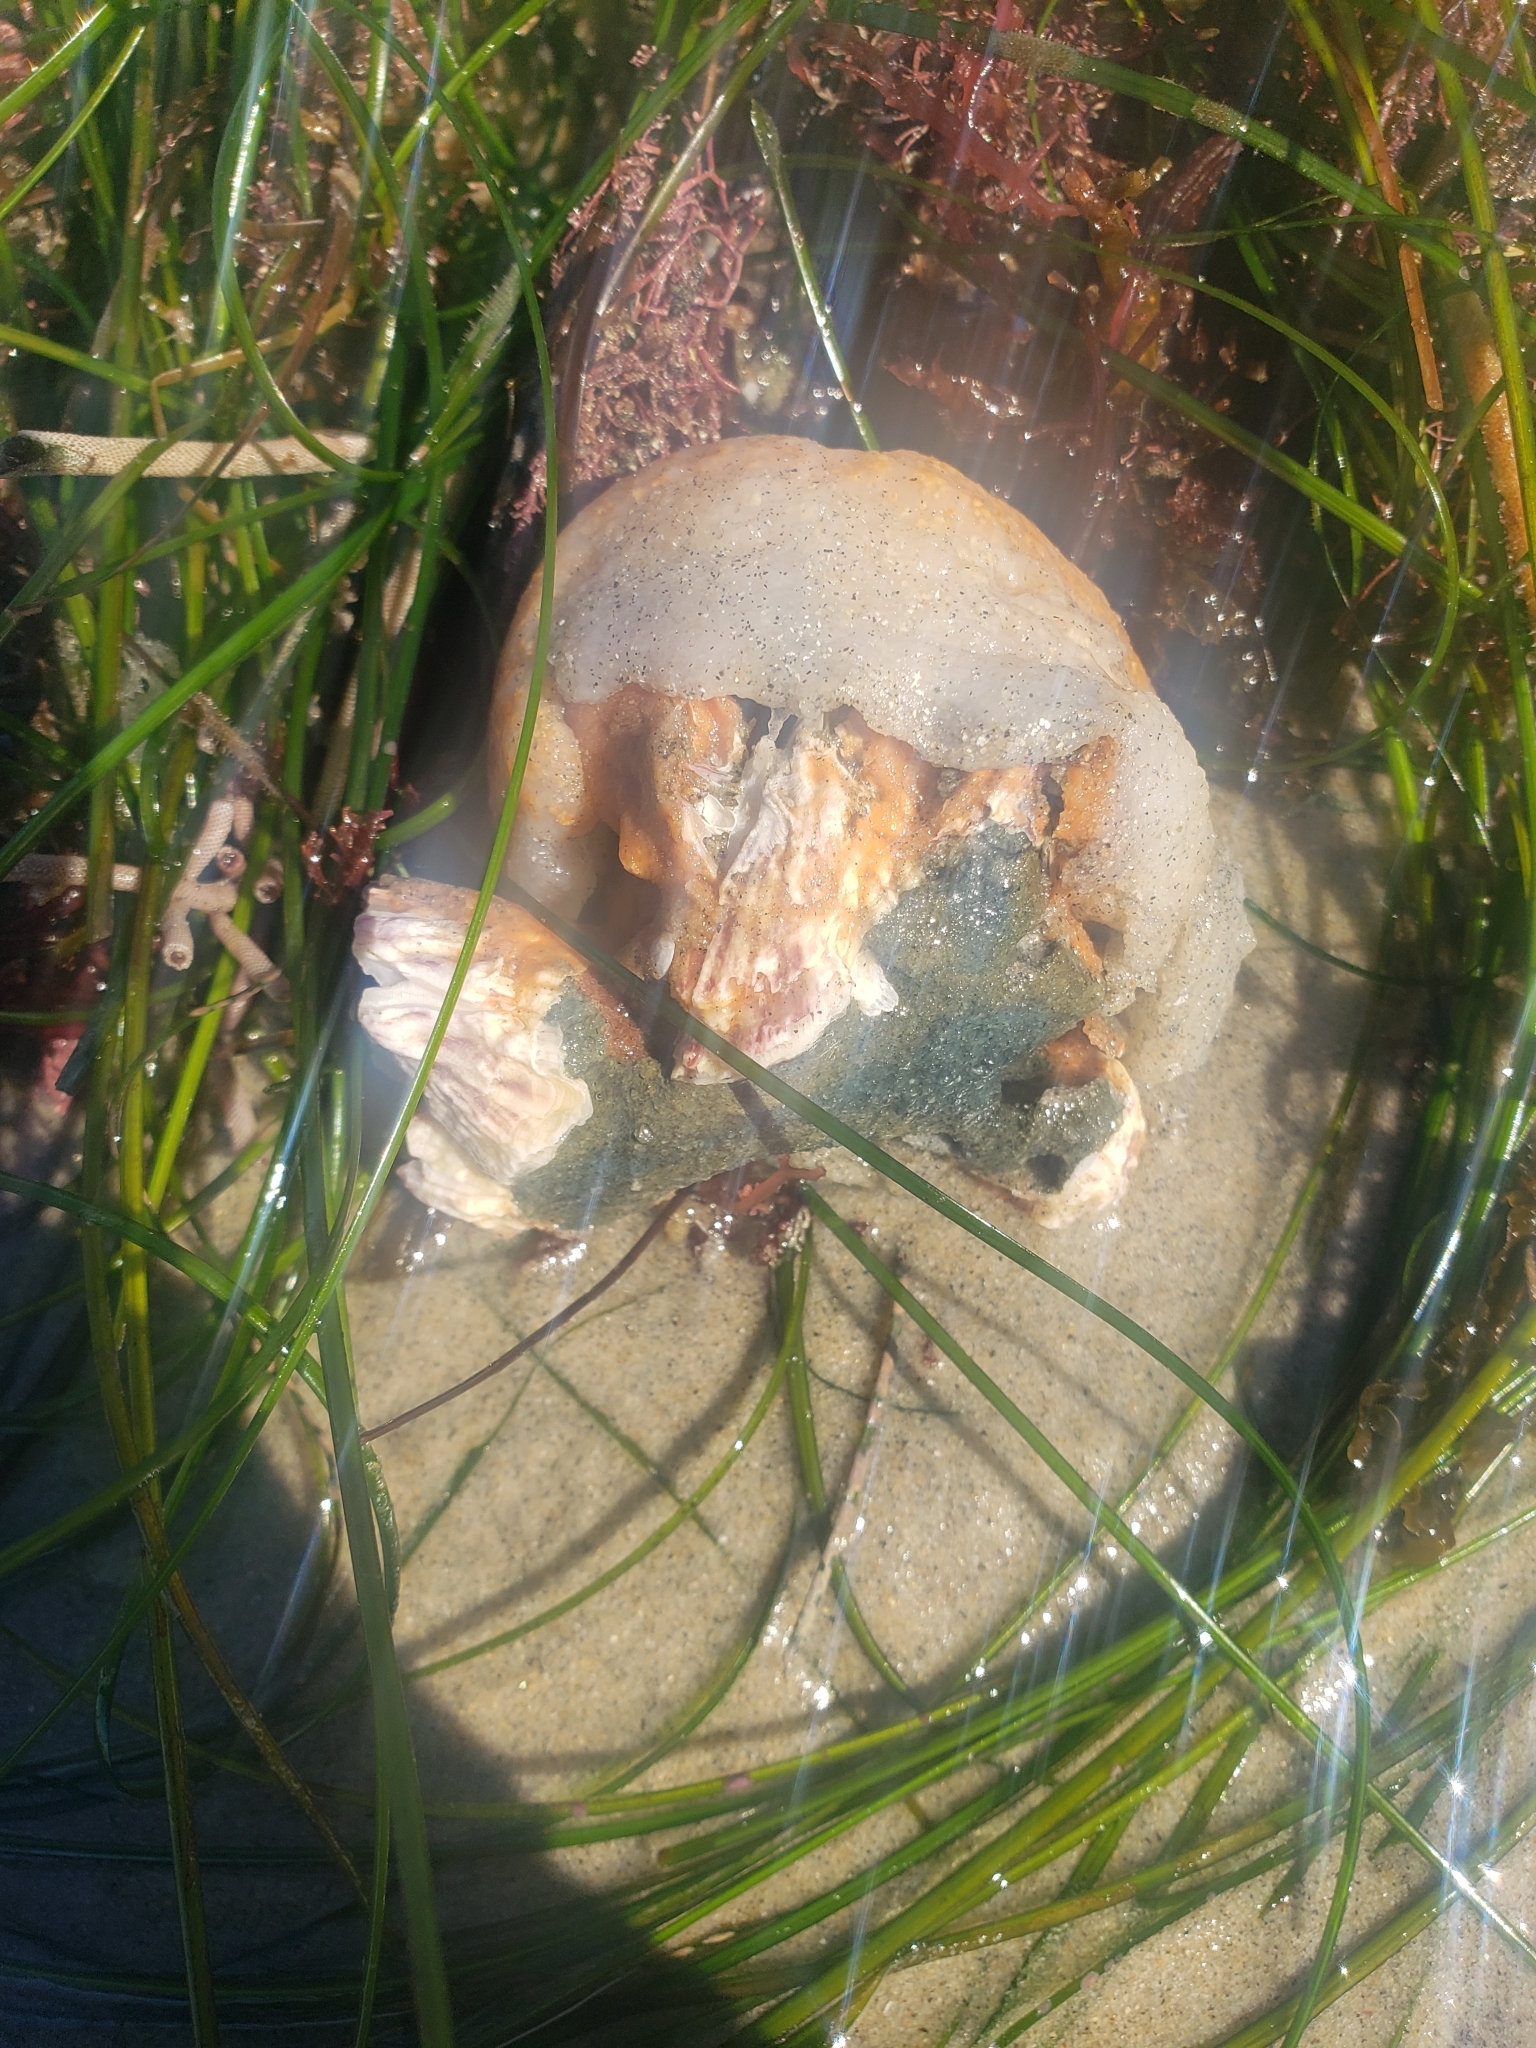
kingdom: Animalia
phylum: Chordata
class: Ascidiacea
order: Aplousobranchia
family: Polyclinidae
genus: Aplidium
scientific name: Aplidium californicum
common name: Sea pork
